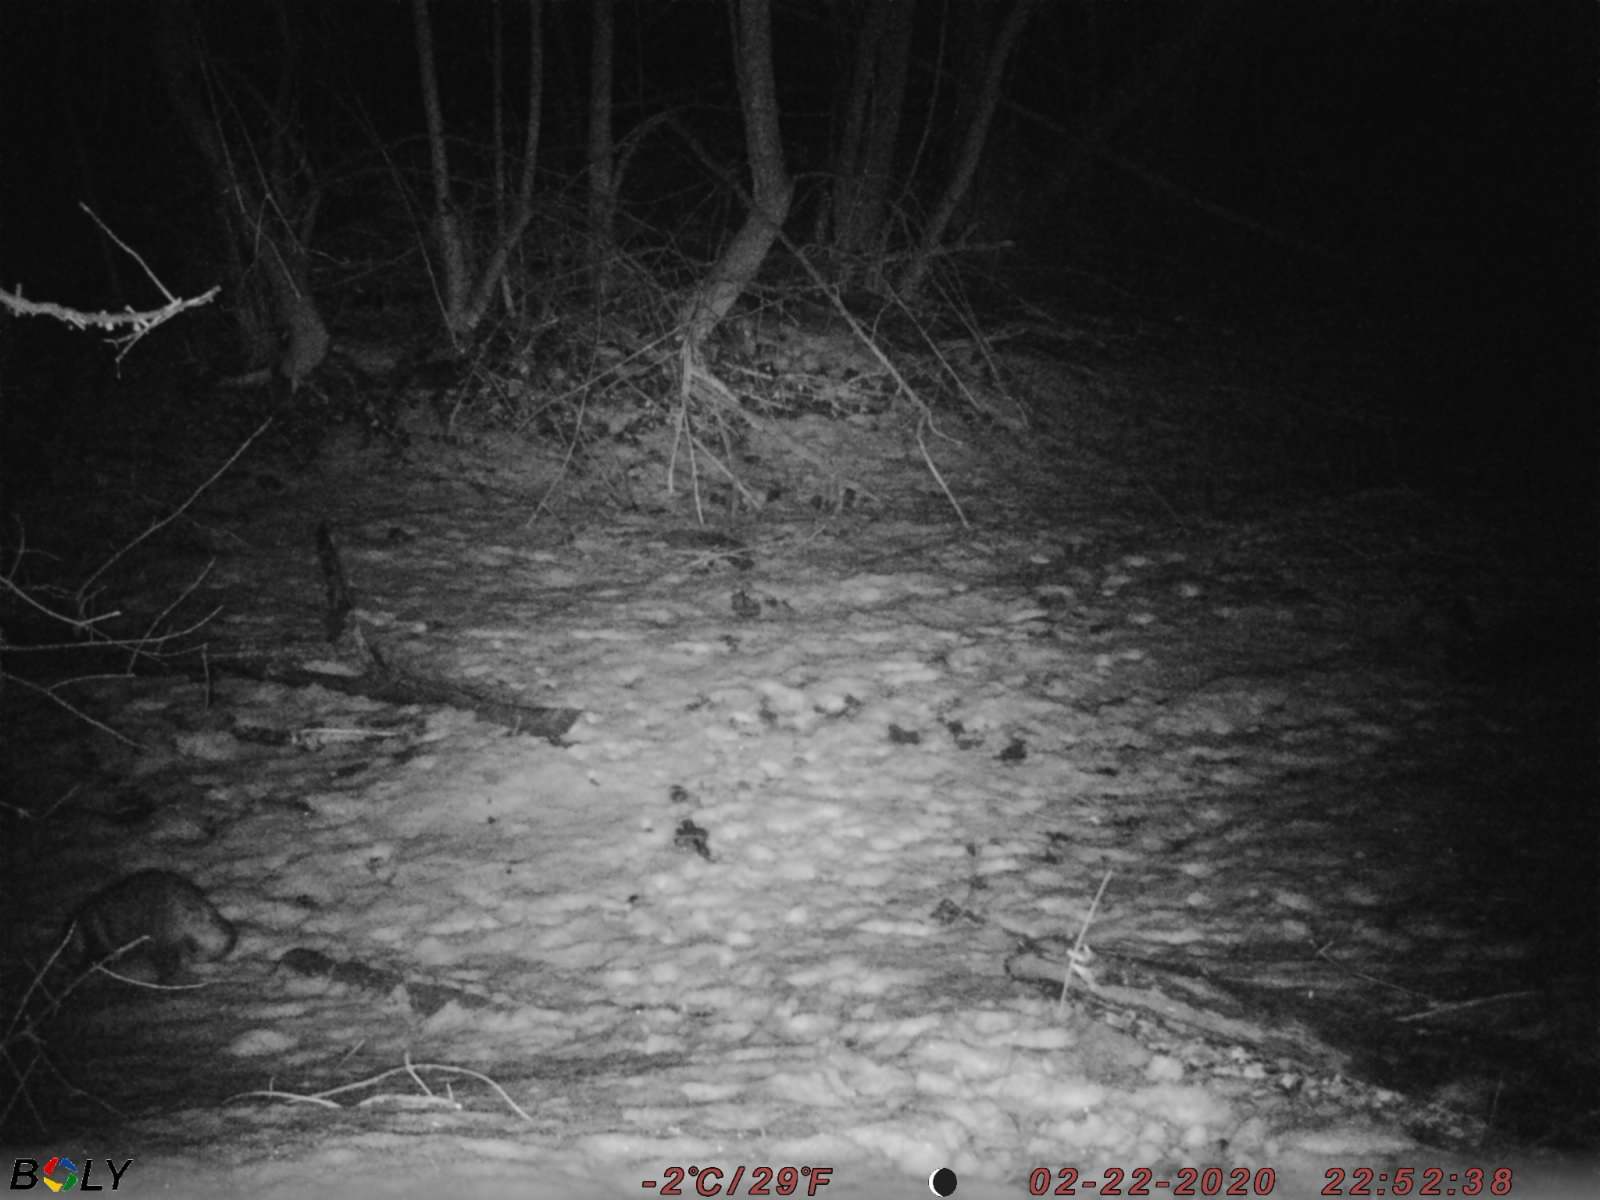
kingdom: Animalia
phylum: Chordata
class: Mammalia
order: Carnivora
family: Canidae
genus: Nyctereutes
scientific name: Nyctereutes procyonoides
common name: Raccoon dog
